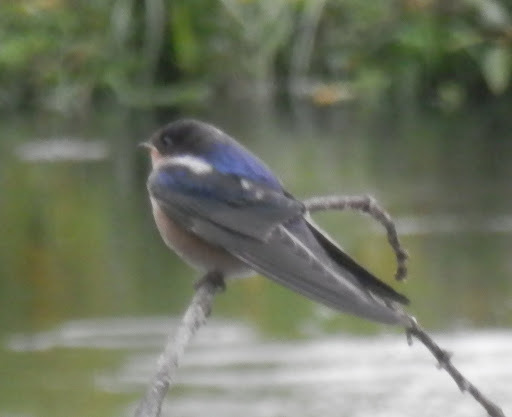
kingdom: Animalia
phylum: Chordata
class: Aves
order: Passeriformes
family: Hirundinidae
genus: Tachycineta
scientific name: Tachycineta bicolor
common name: Tree swallow
